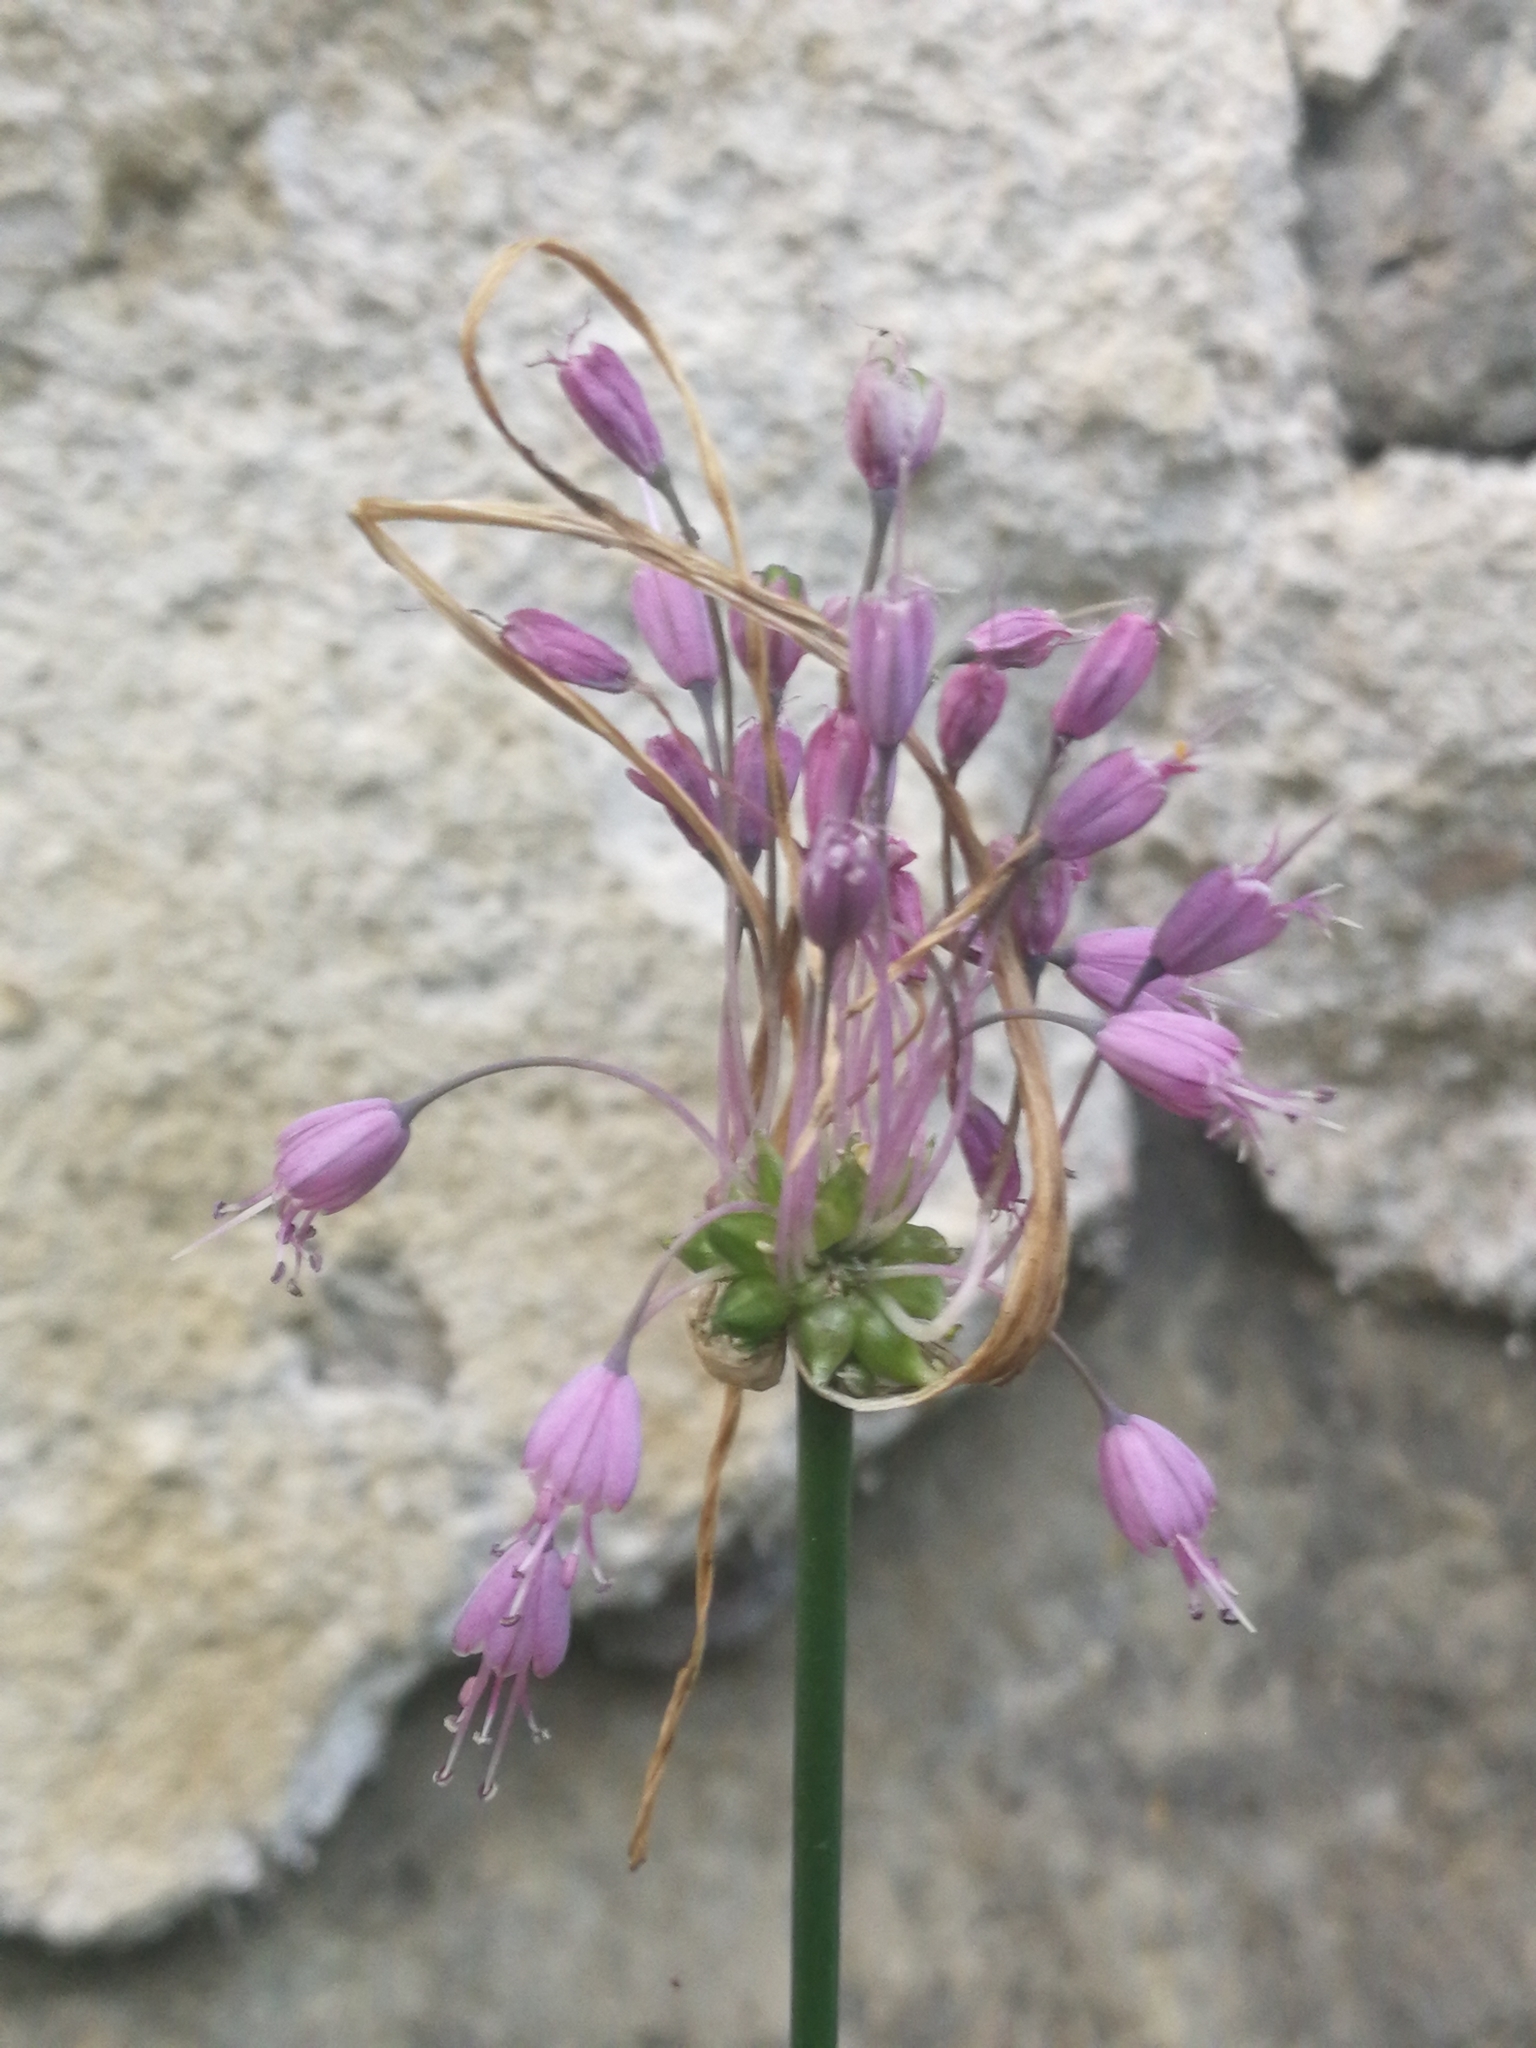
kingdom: Plantae
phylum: Tracheophyta
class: Liliopsida
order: Asparagales
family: Amaryllidaceae
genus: Allium
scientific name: Allium carinatum
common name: Keeled garlic
